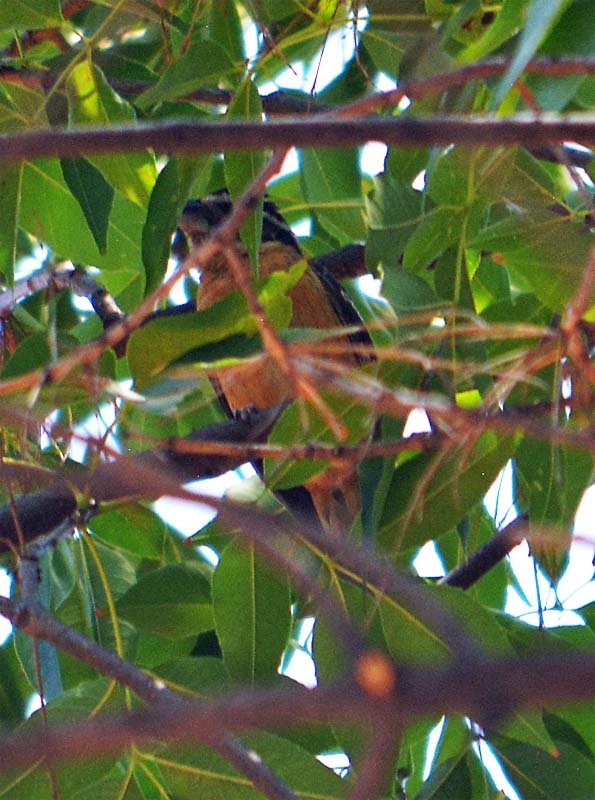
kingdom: Animalia
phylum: Chordata
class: Aves
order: Passeriformes
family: Cardinalidae
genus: Pheucticus
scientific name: Pheucticus melanocephalus
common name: Black-headed grosbeak
